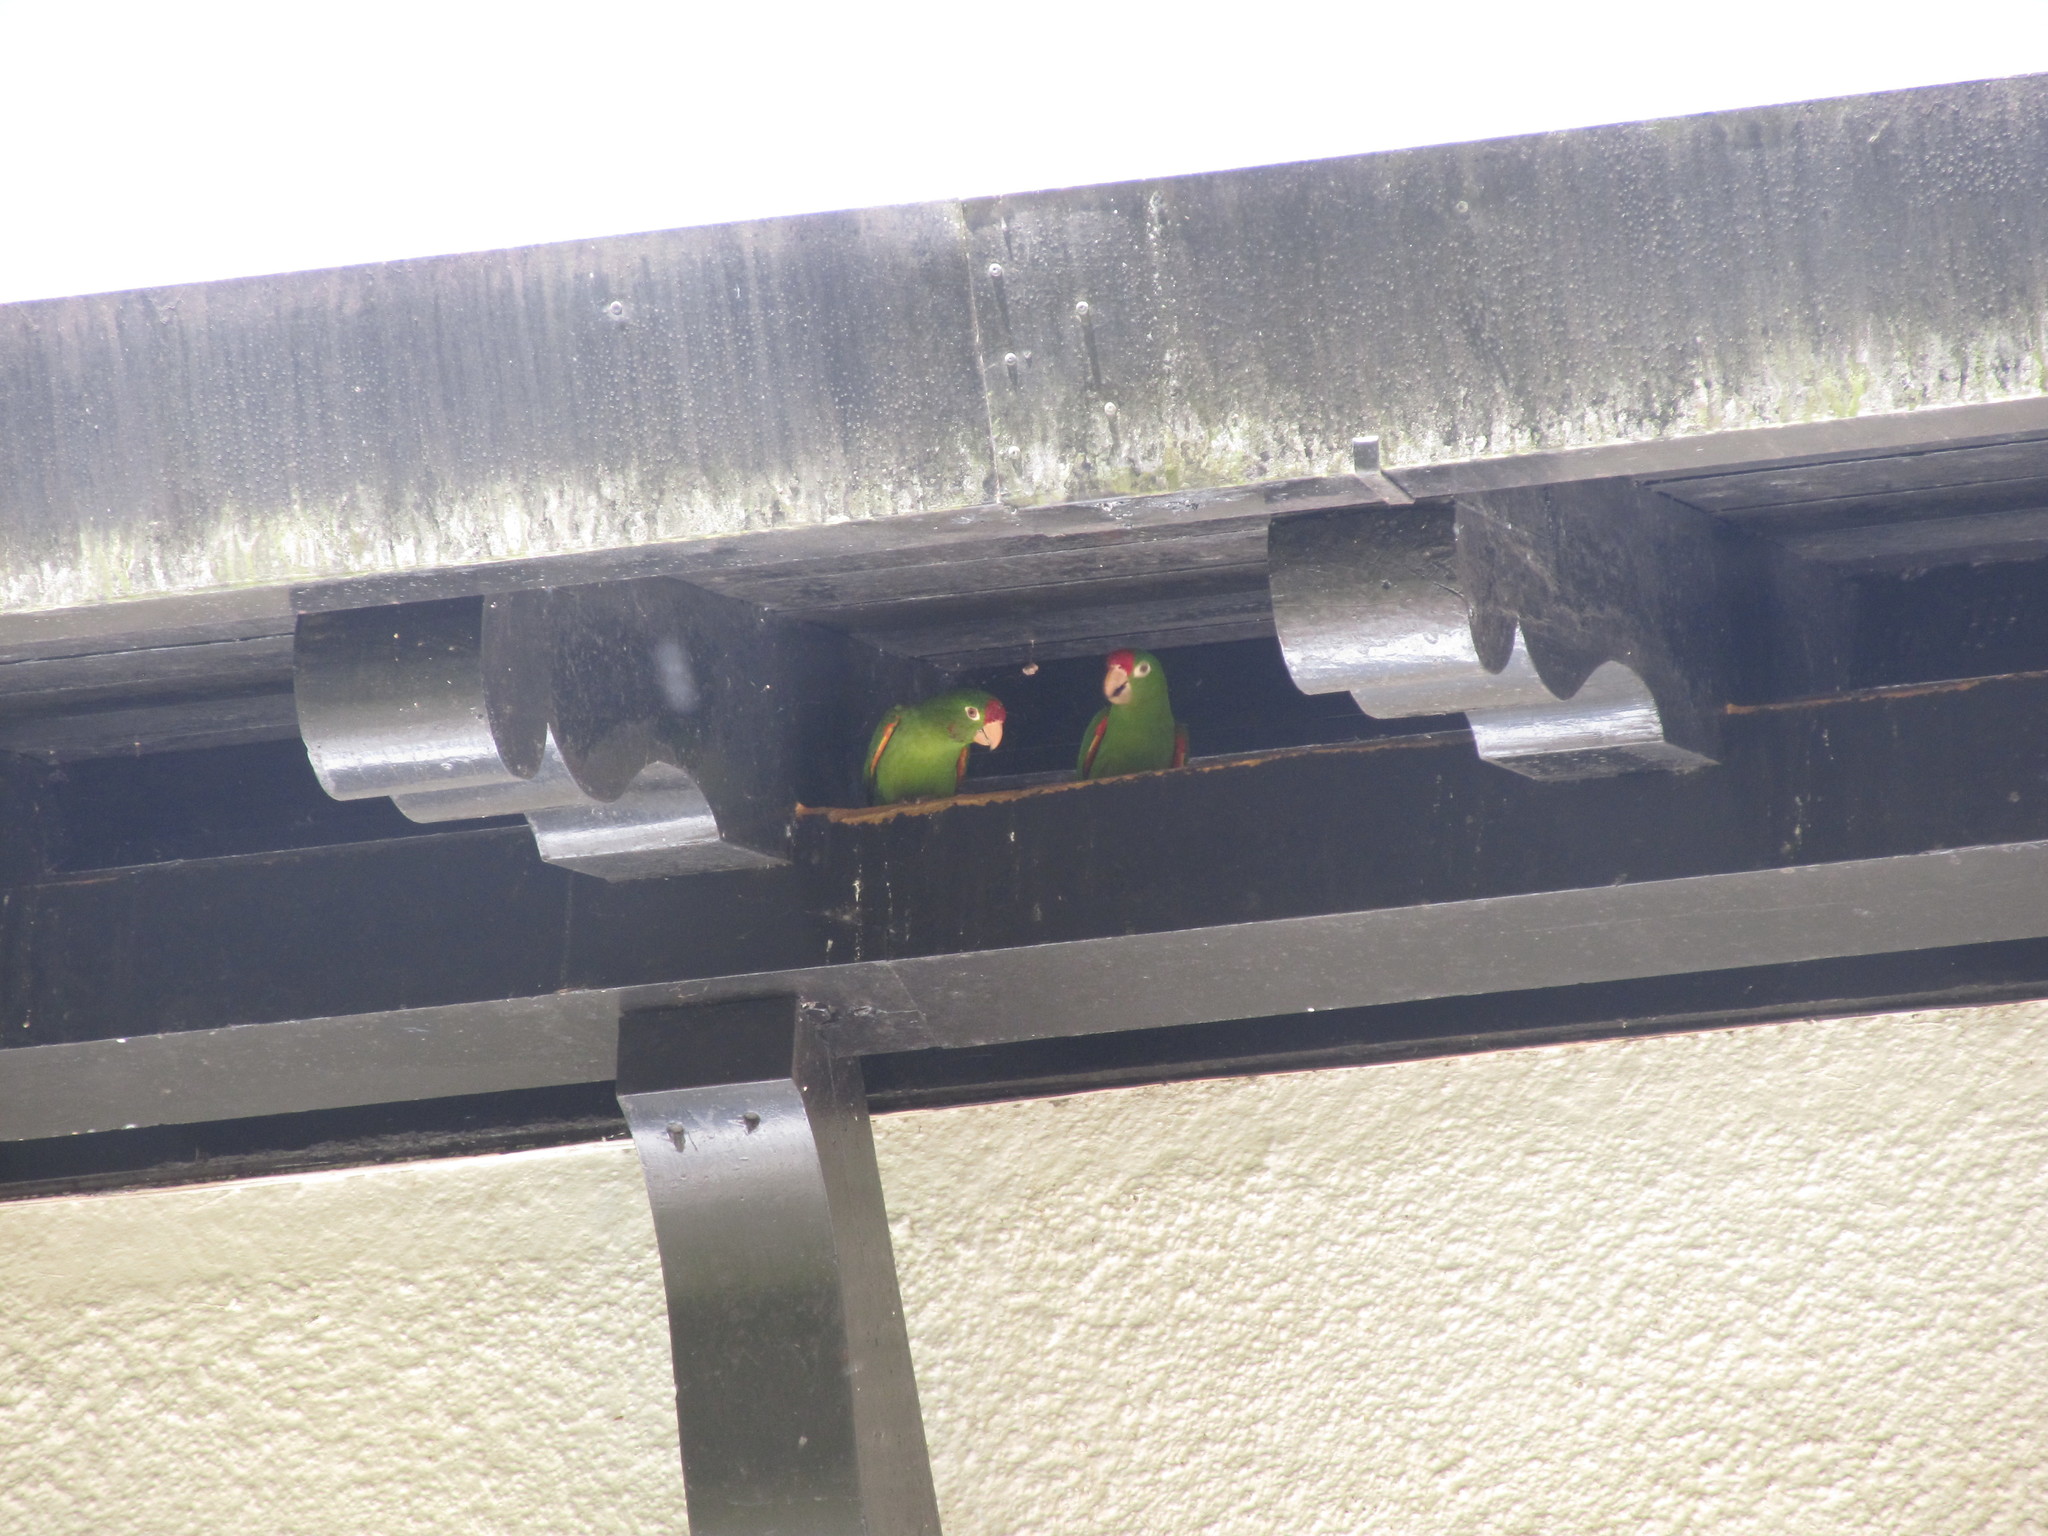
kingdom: Animalia
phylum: Chordata
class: Aves
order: Psittaciformes
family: Psittacidae
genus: Aratinga
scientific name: Aratinga finschi
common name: Crimson-fronted parakeet
